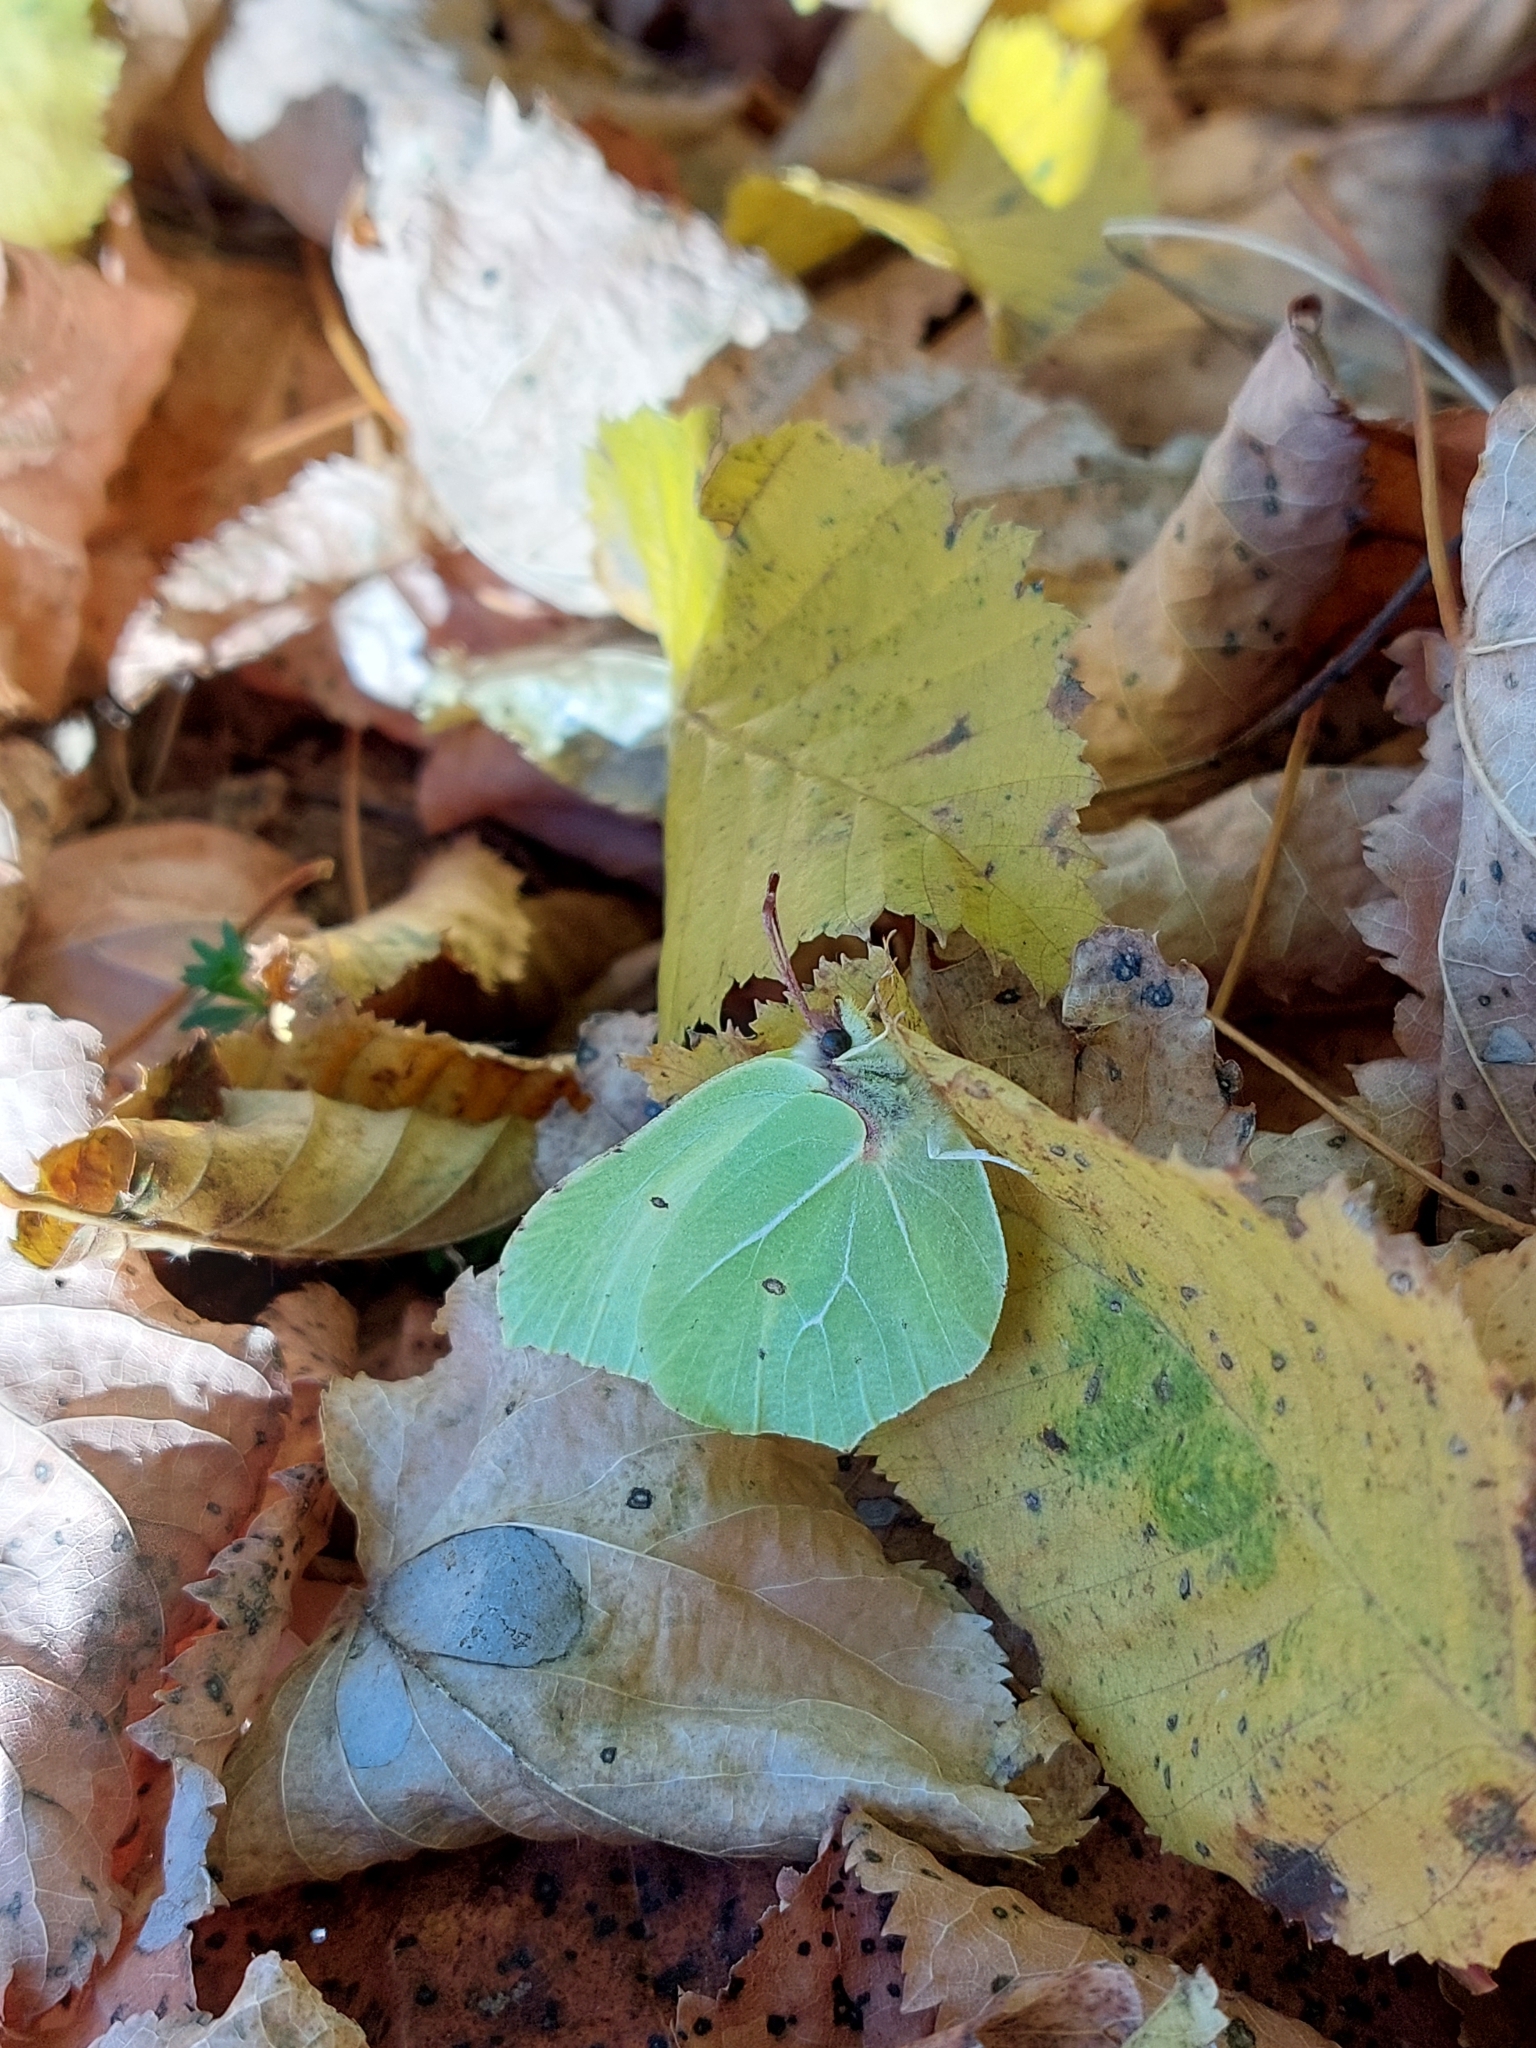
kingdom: Animalia
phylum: Arthropoda
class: Insecta
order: Lepidoptera
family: Pieridae
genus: Gonepteryx
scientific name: Gonepteryx rhamni
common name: Brimstone
